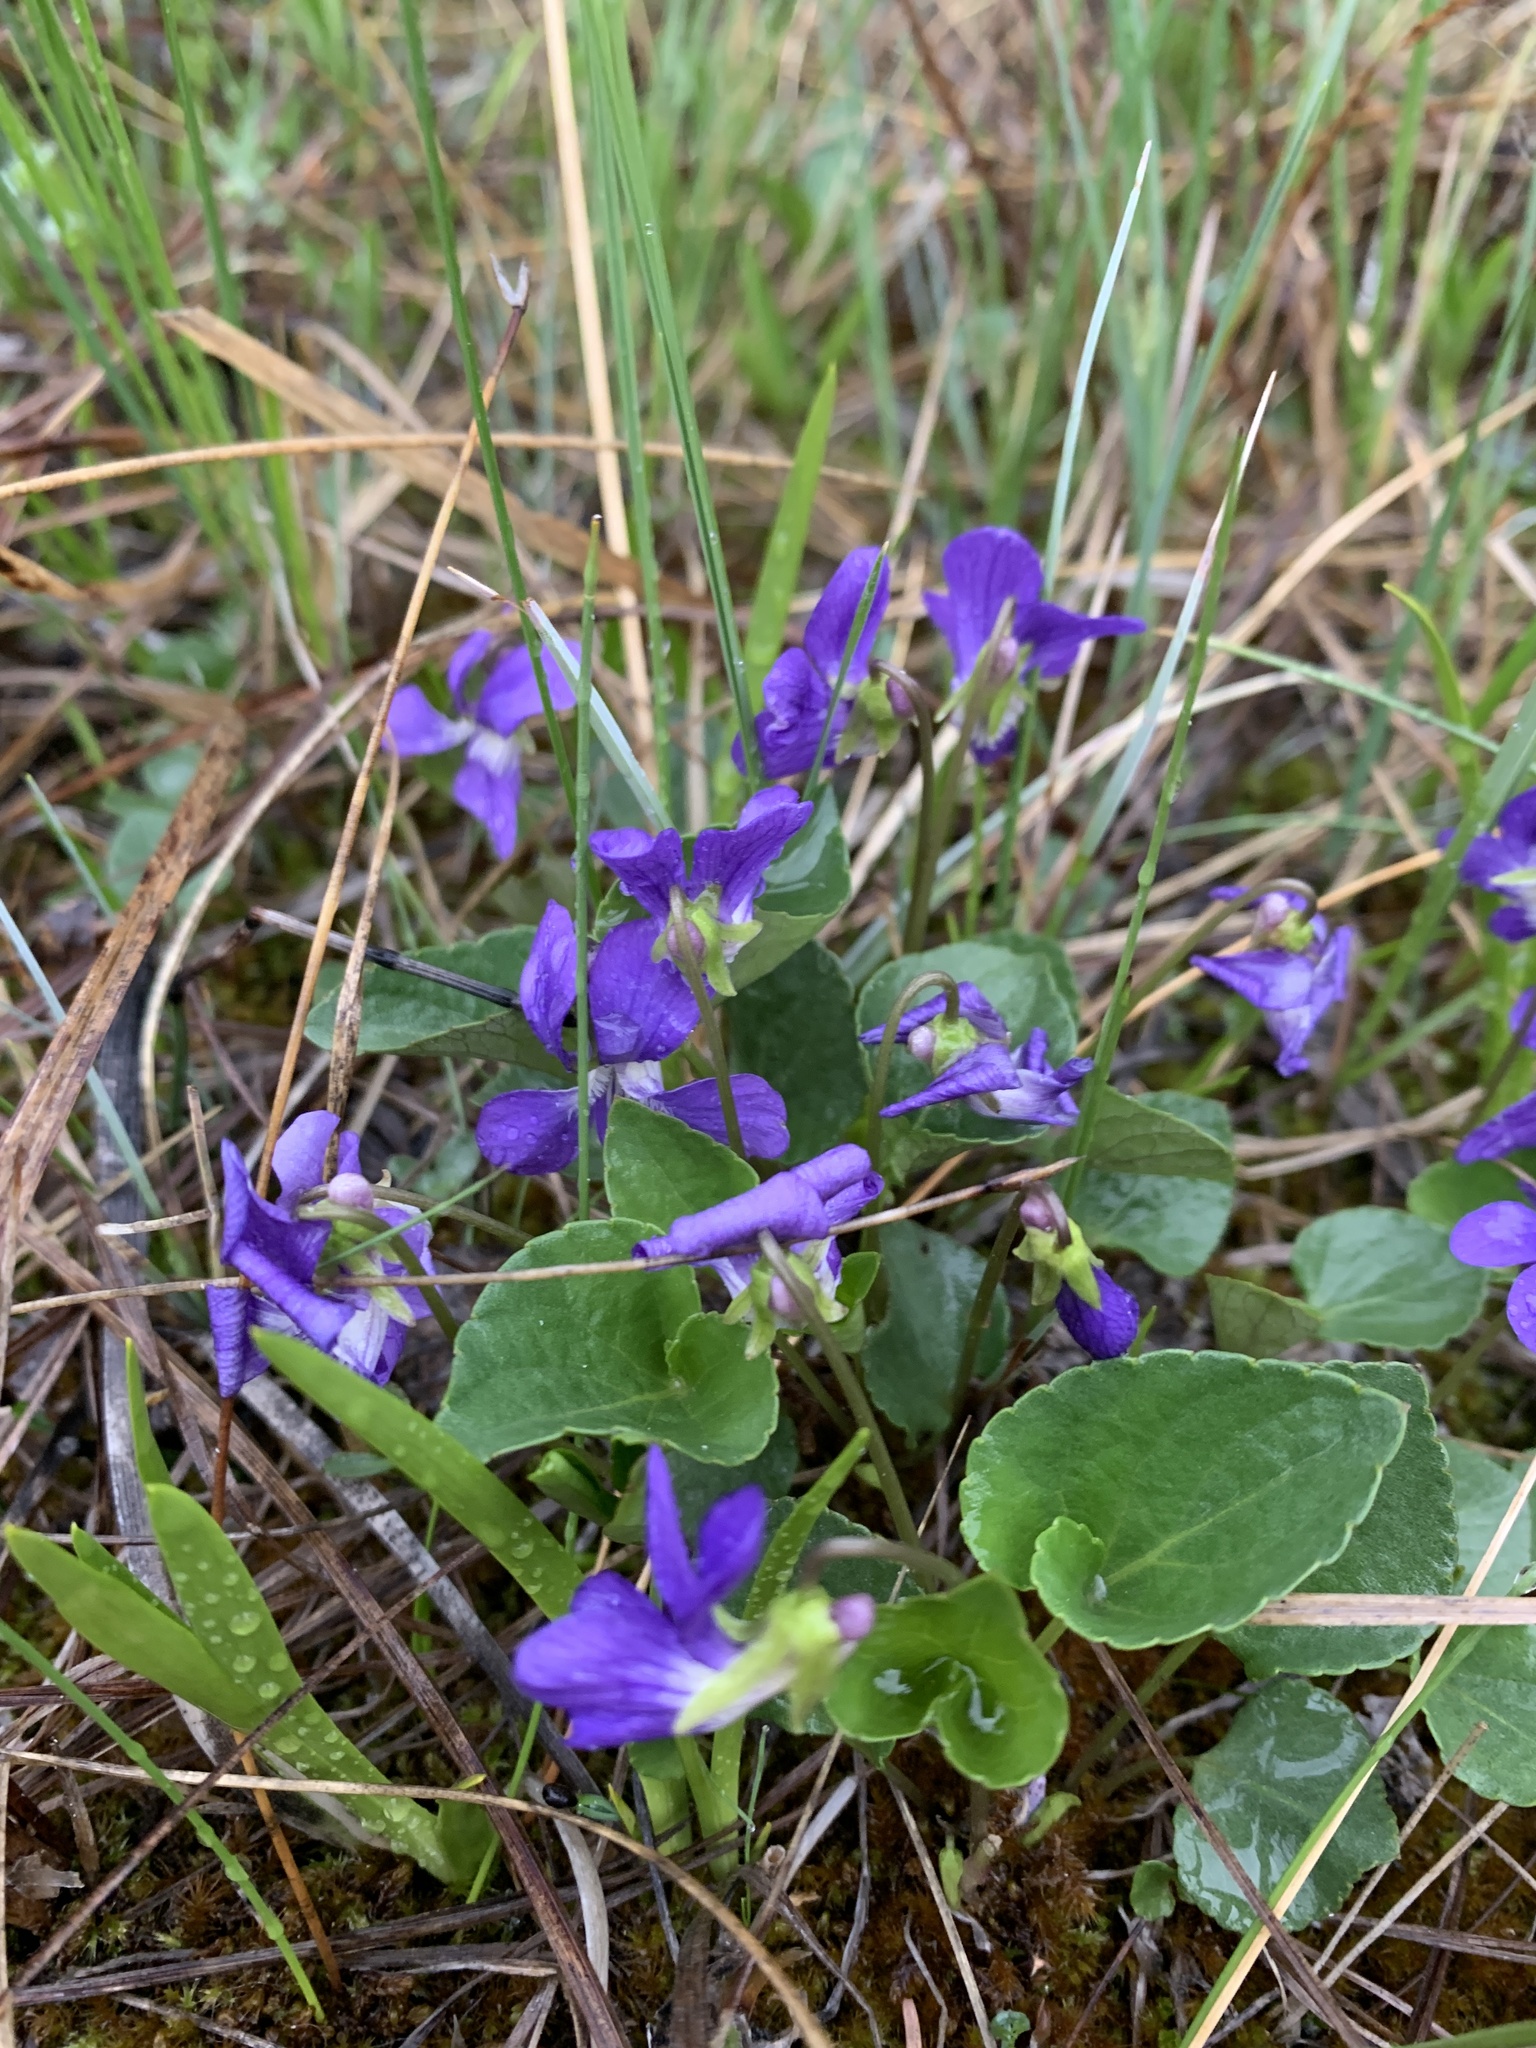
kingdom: Plantae
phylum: Tracheophyta
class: Magnoliopsida
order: Malpighiales
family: Violaceae
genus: Viola
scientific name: Viola adunca
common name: Sand violet
